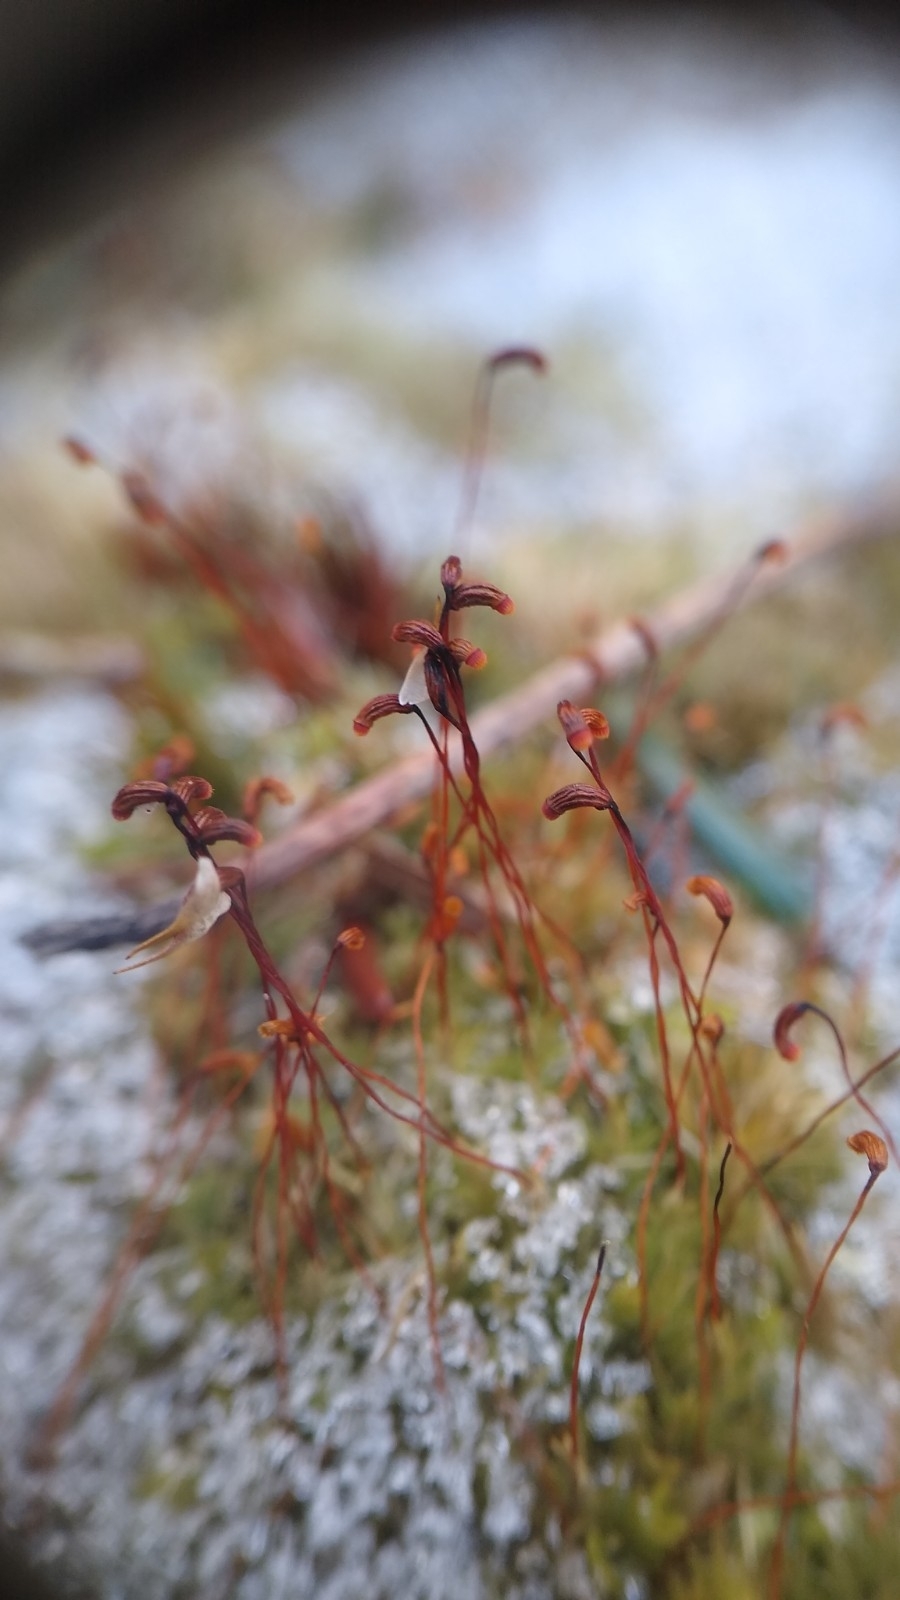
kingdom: Plantae
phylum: Bryophyta
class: Bryopsida
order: Dicranales
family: Leucobryaceae
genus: Leucobryum
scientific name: Leucobryum albidum
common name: White moss
